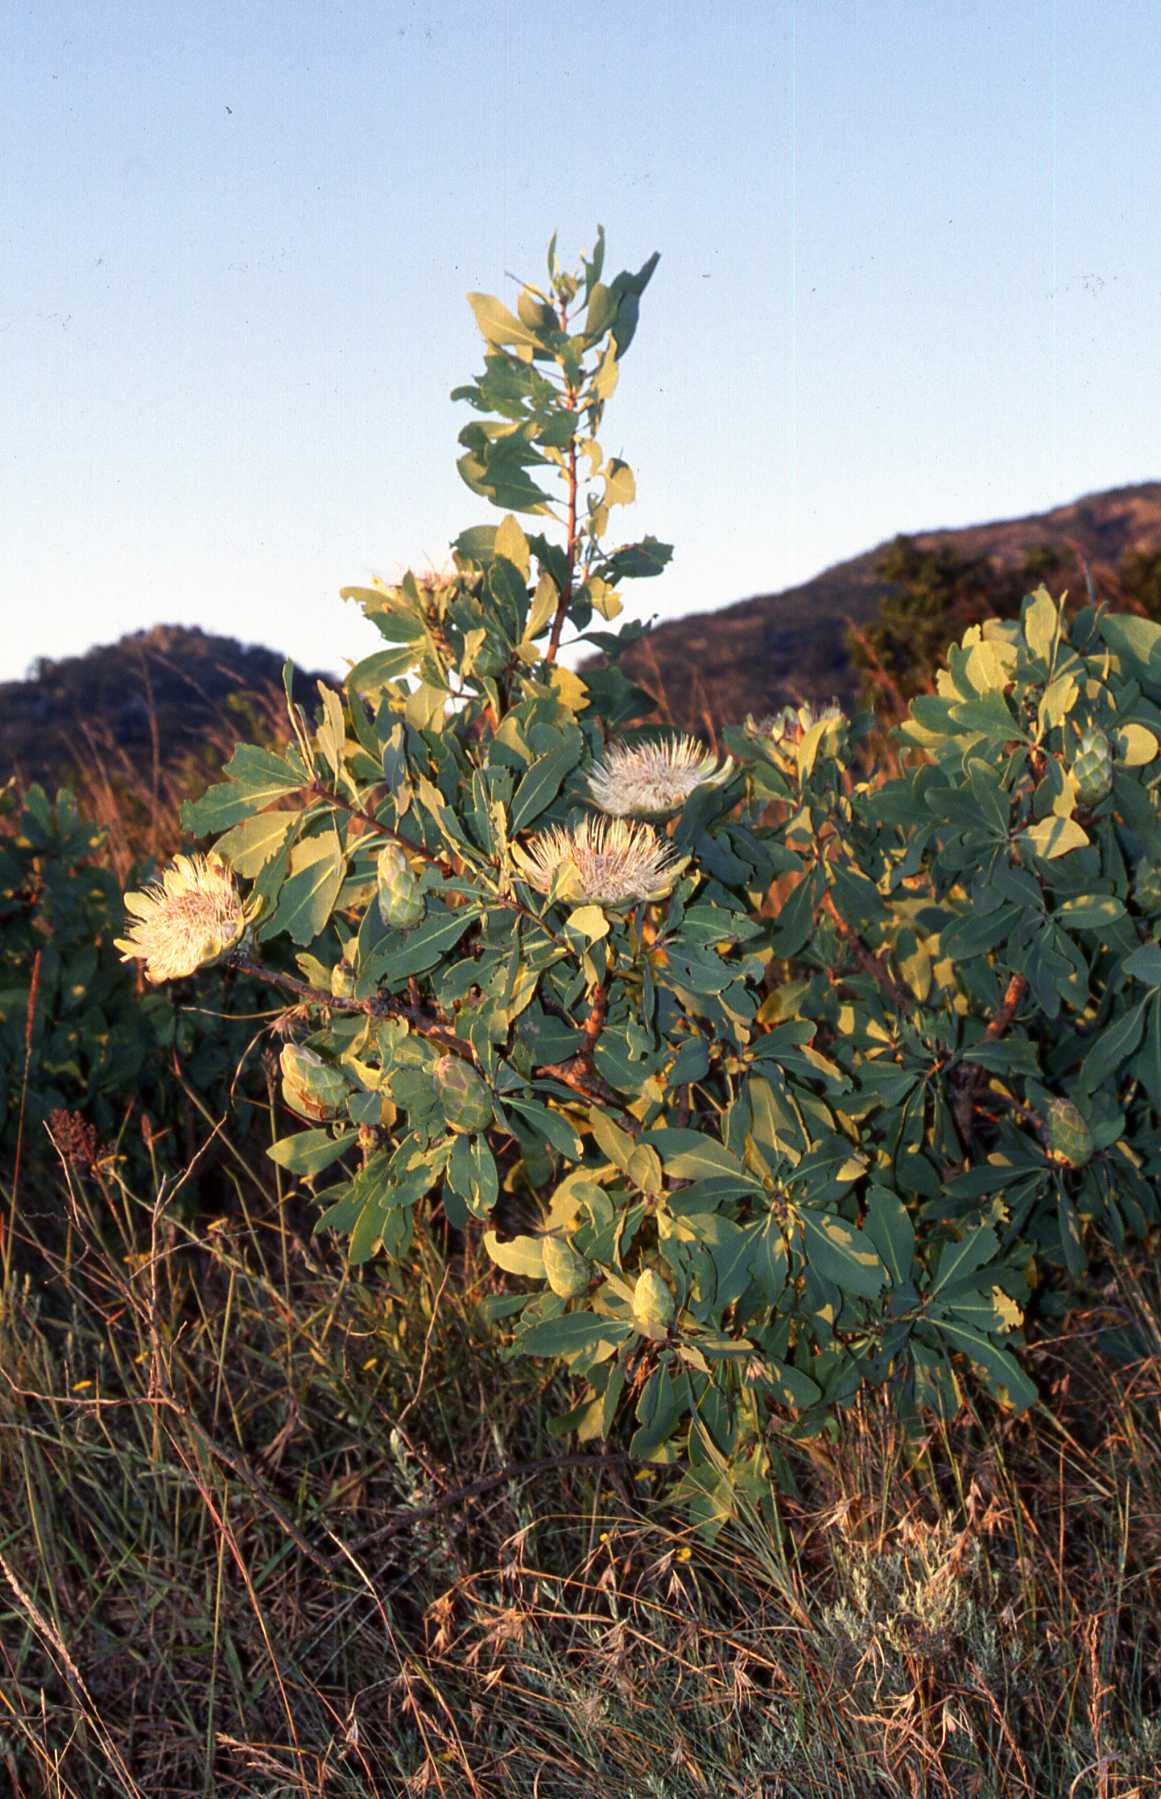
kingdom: Plantae
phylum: Tracheophyta
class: Magnoliopsida
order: Proteales
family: Proteaceae
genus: Protea
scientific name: Protea welwitschii
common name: Cluster-head protea
